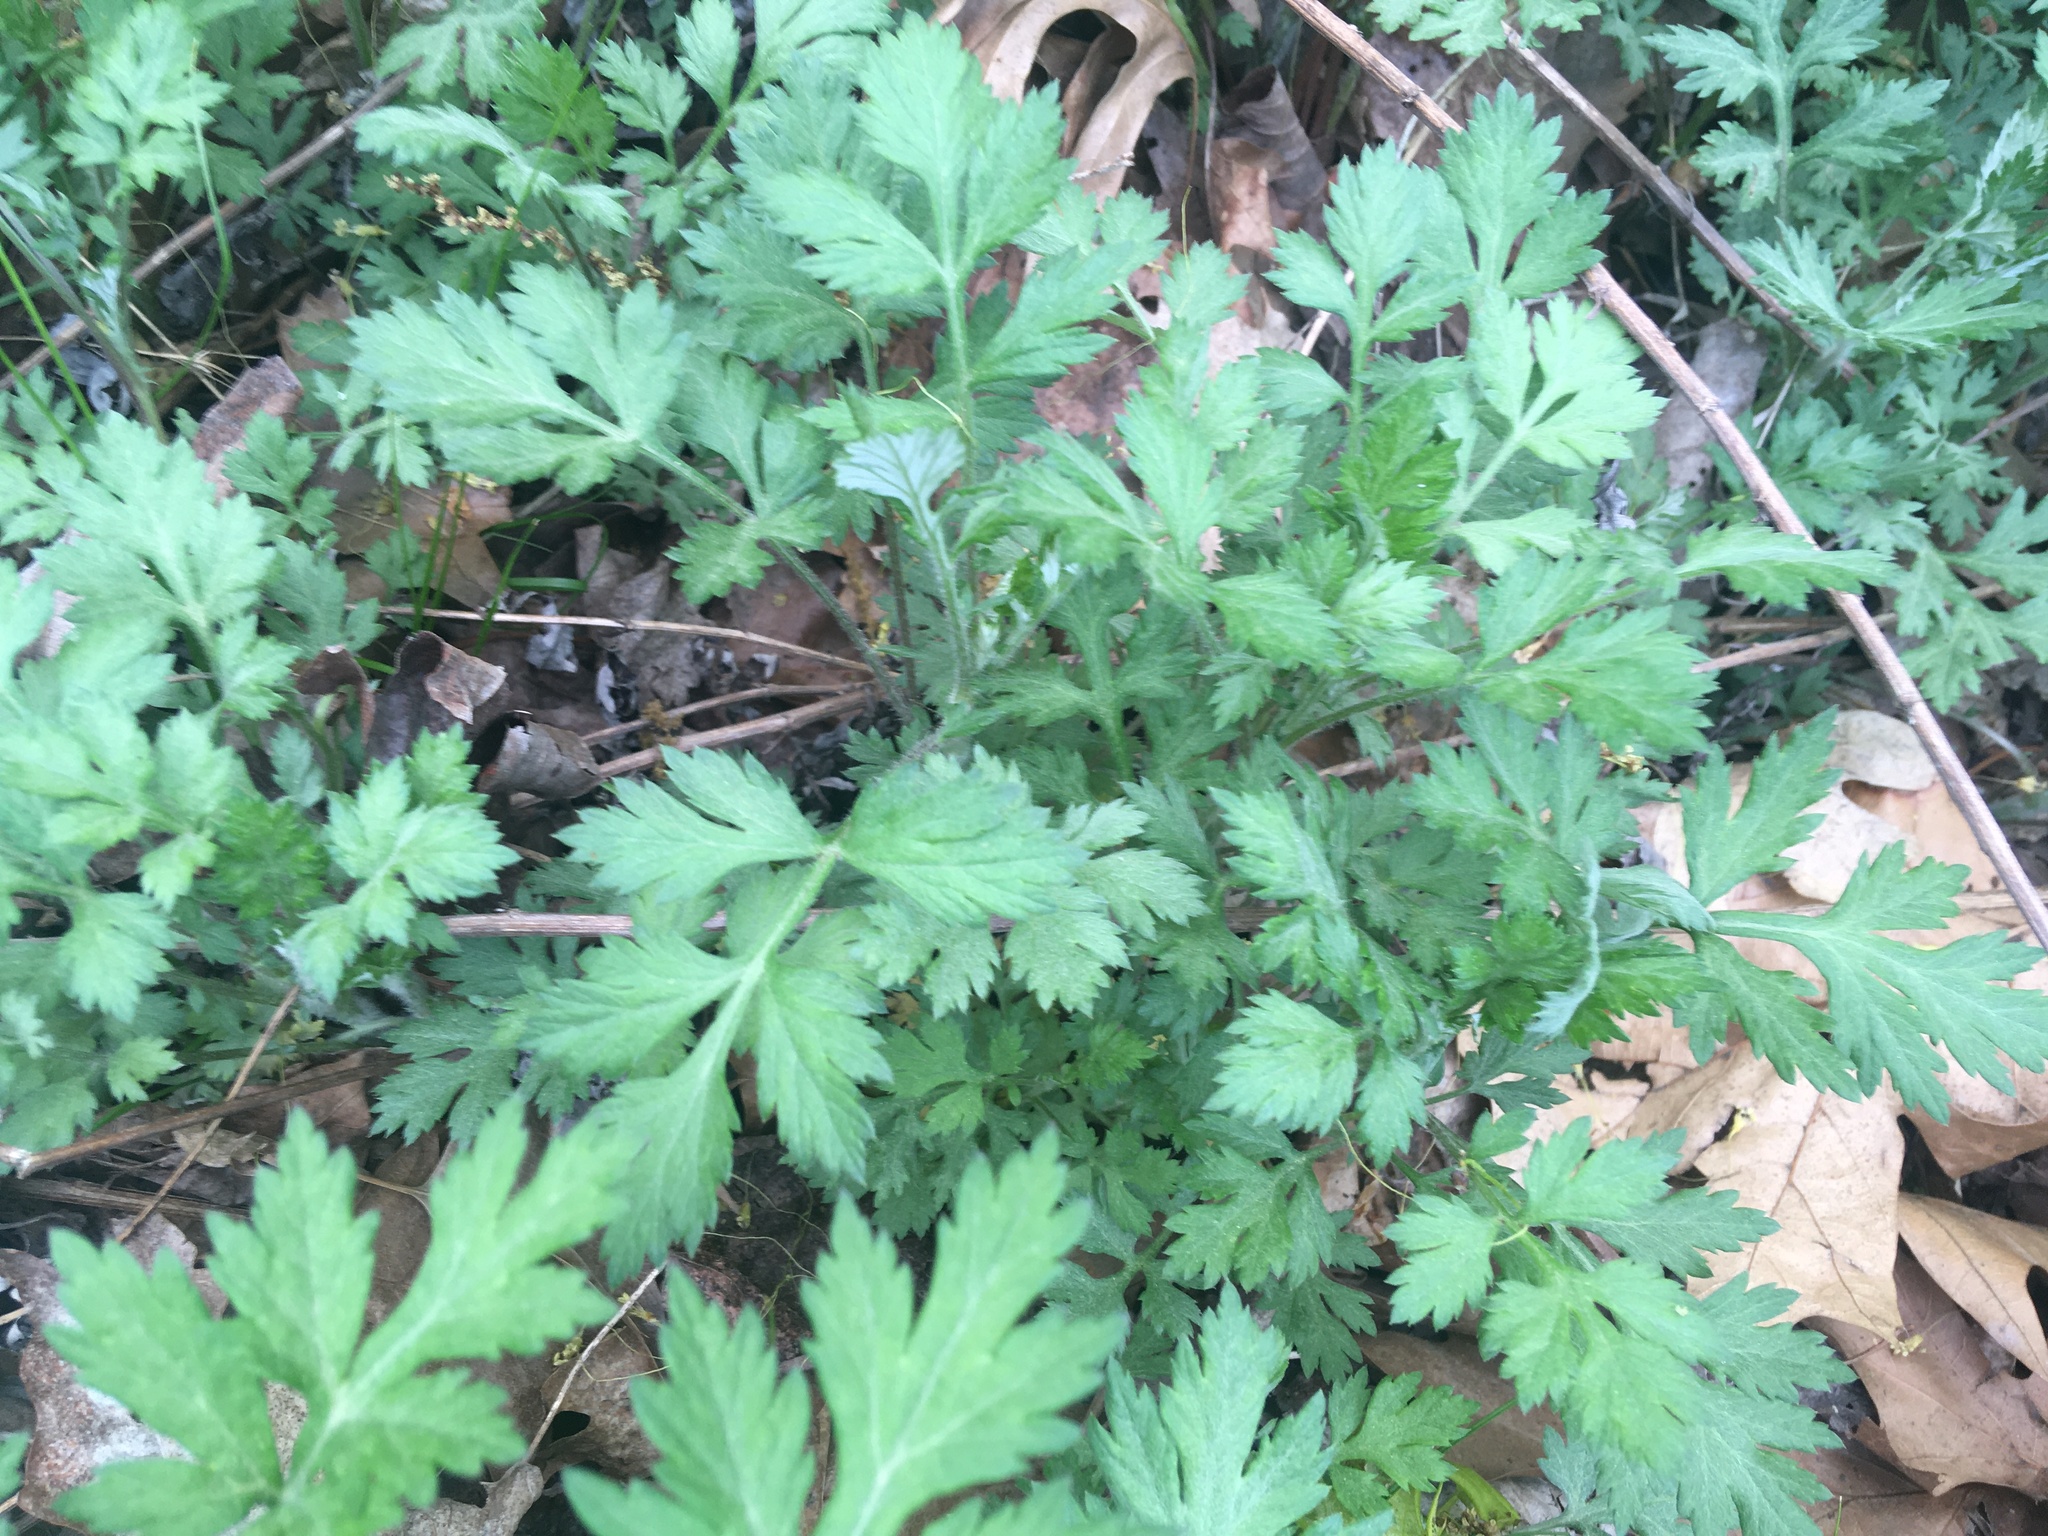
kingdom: Plantae
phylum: Tracheophyta
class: Magnoliopsida
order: Asterales
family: Asteraceae
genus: Artemisia
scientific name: Artemisia vulgaris
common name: Mugwort
